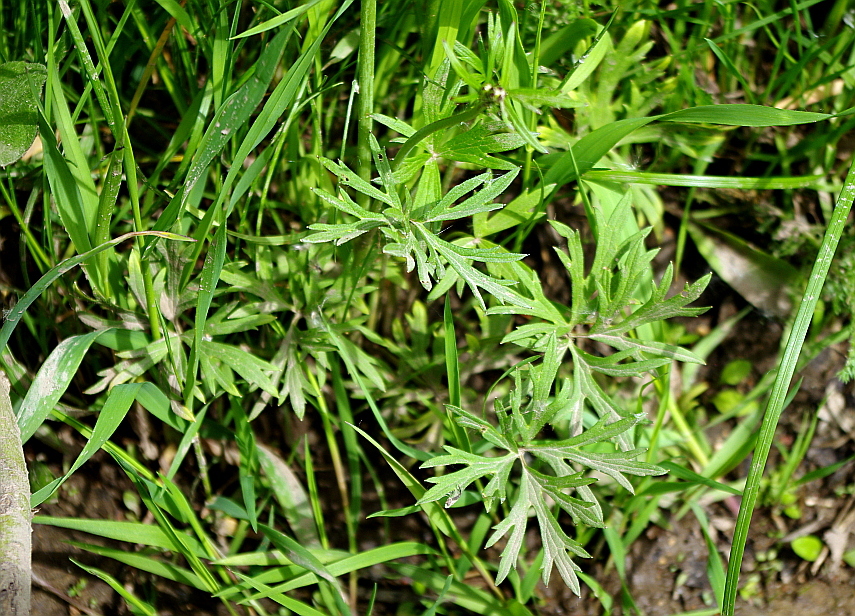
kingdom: Plantae
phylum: Tracheophyta
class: Magnoliopsida
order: Ranunculales
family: Ranunculaceae
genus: Ranunculus
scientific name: Ranunculus acris
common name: Meadow buttercup
